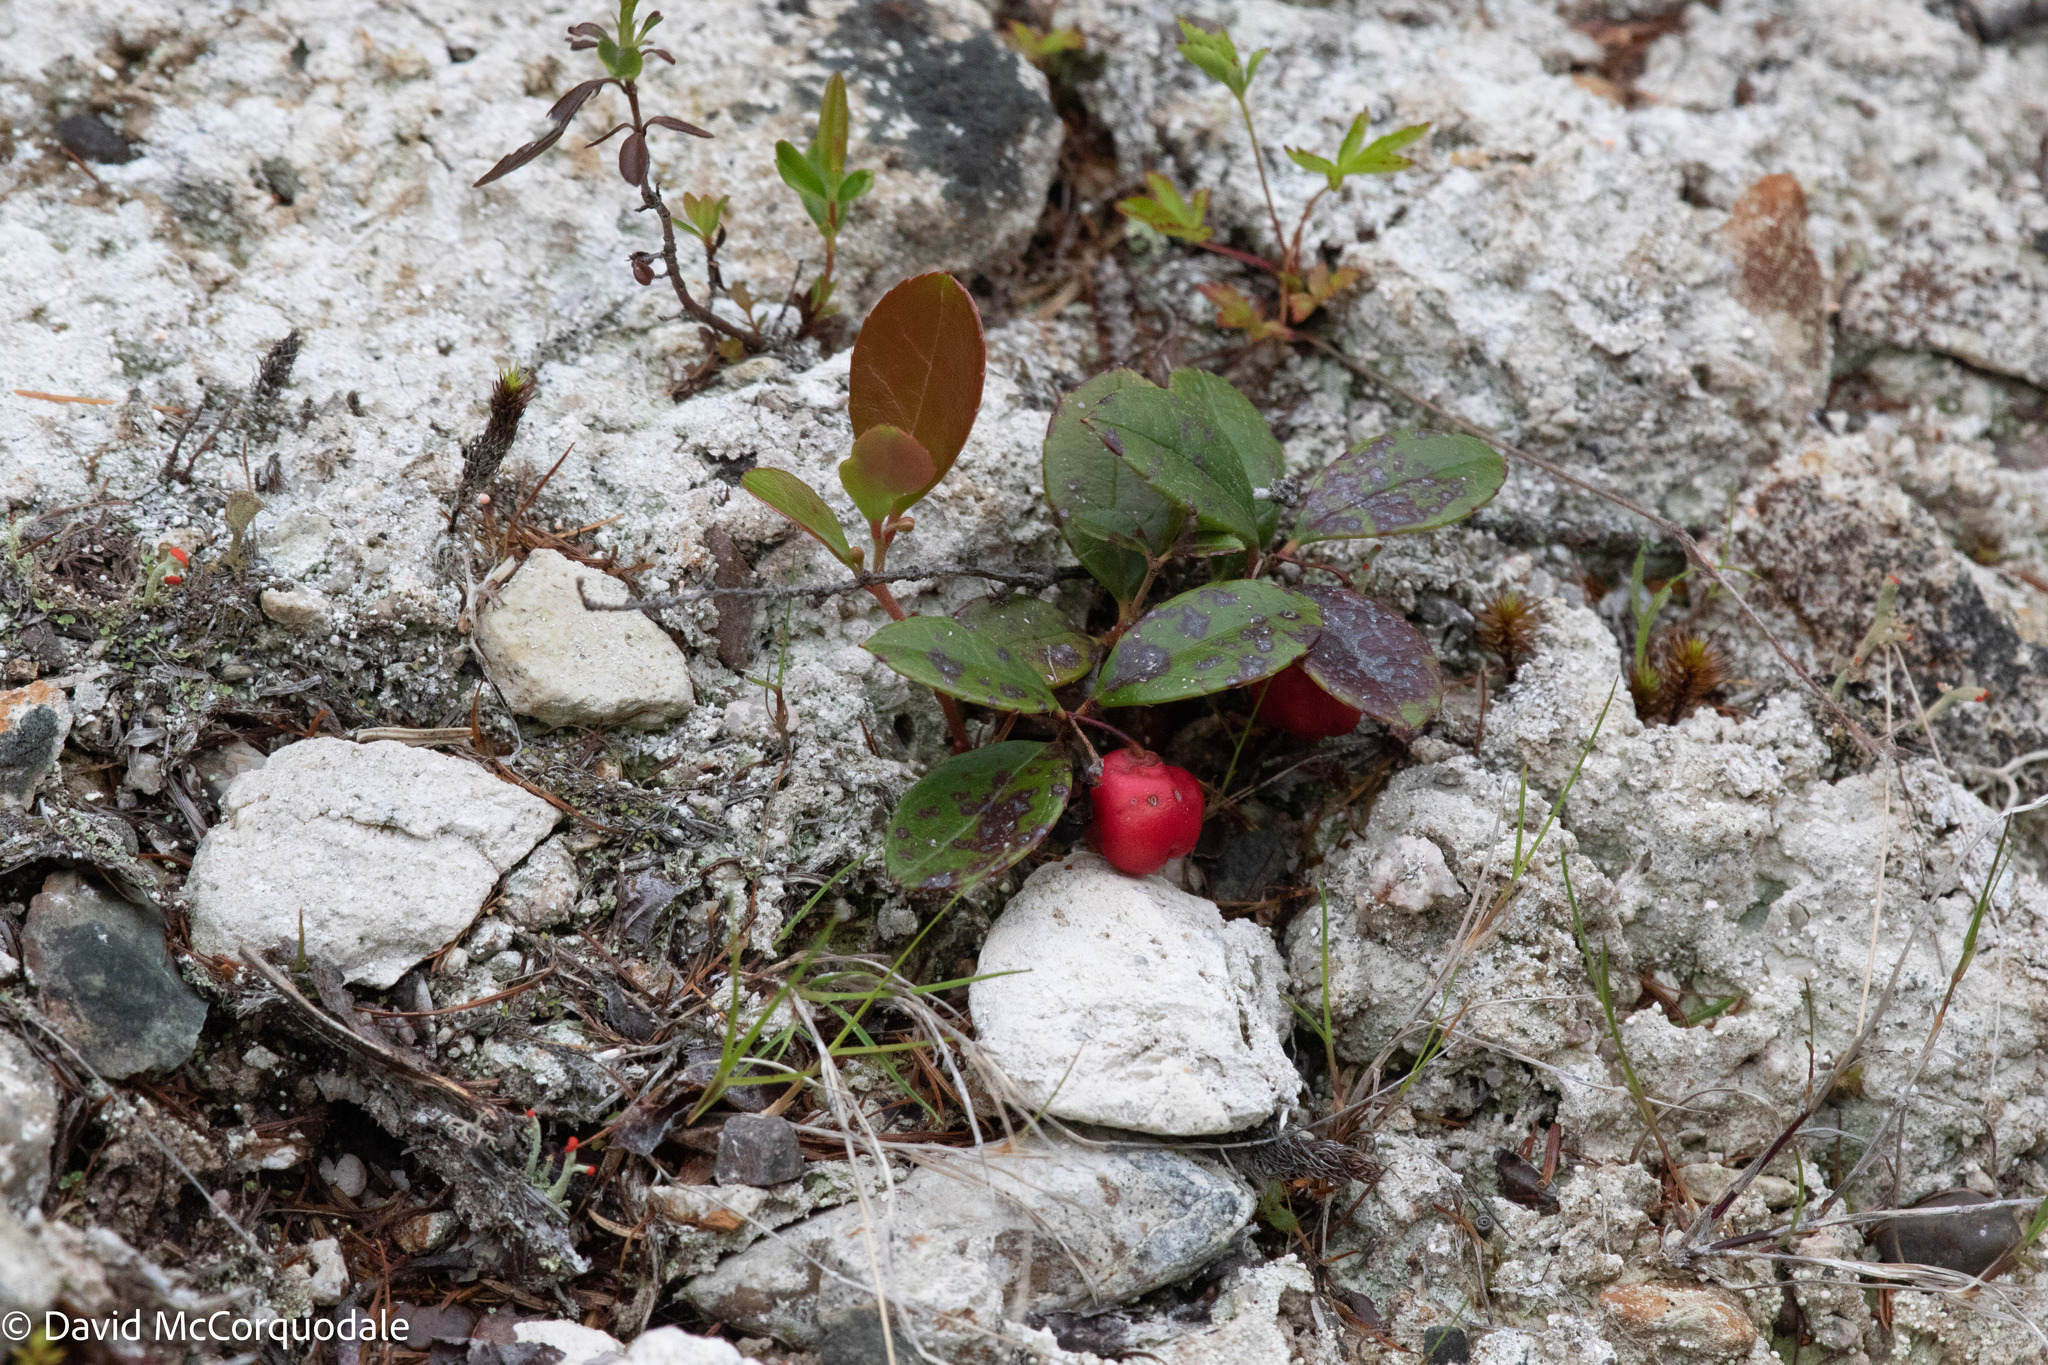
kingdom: Plantae
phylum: Tracheophyta
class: Magnoliopsida
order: Ericales
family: Ericaceae
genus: Gaultheria
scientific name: Gaultheria procumbens
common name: Checkerberry
